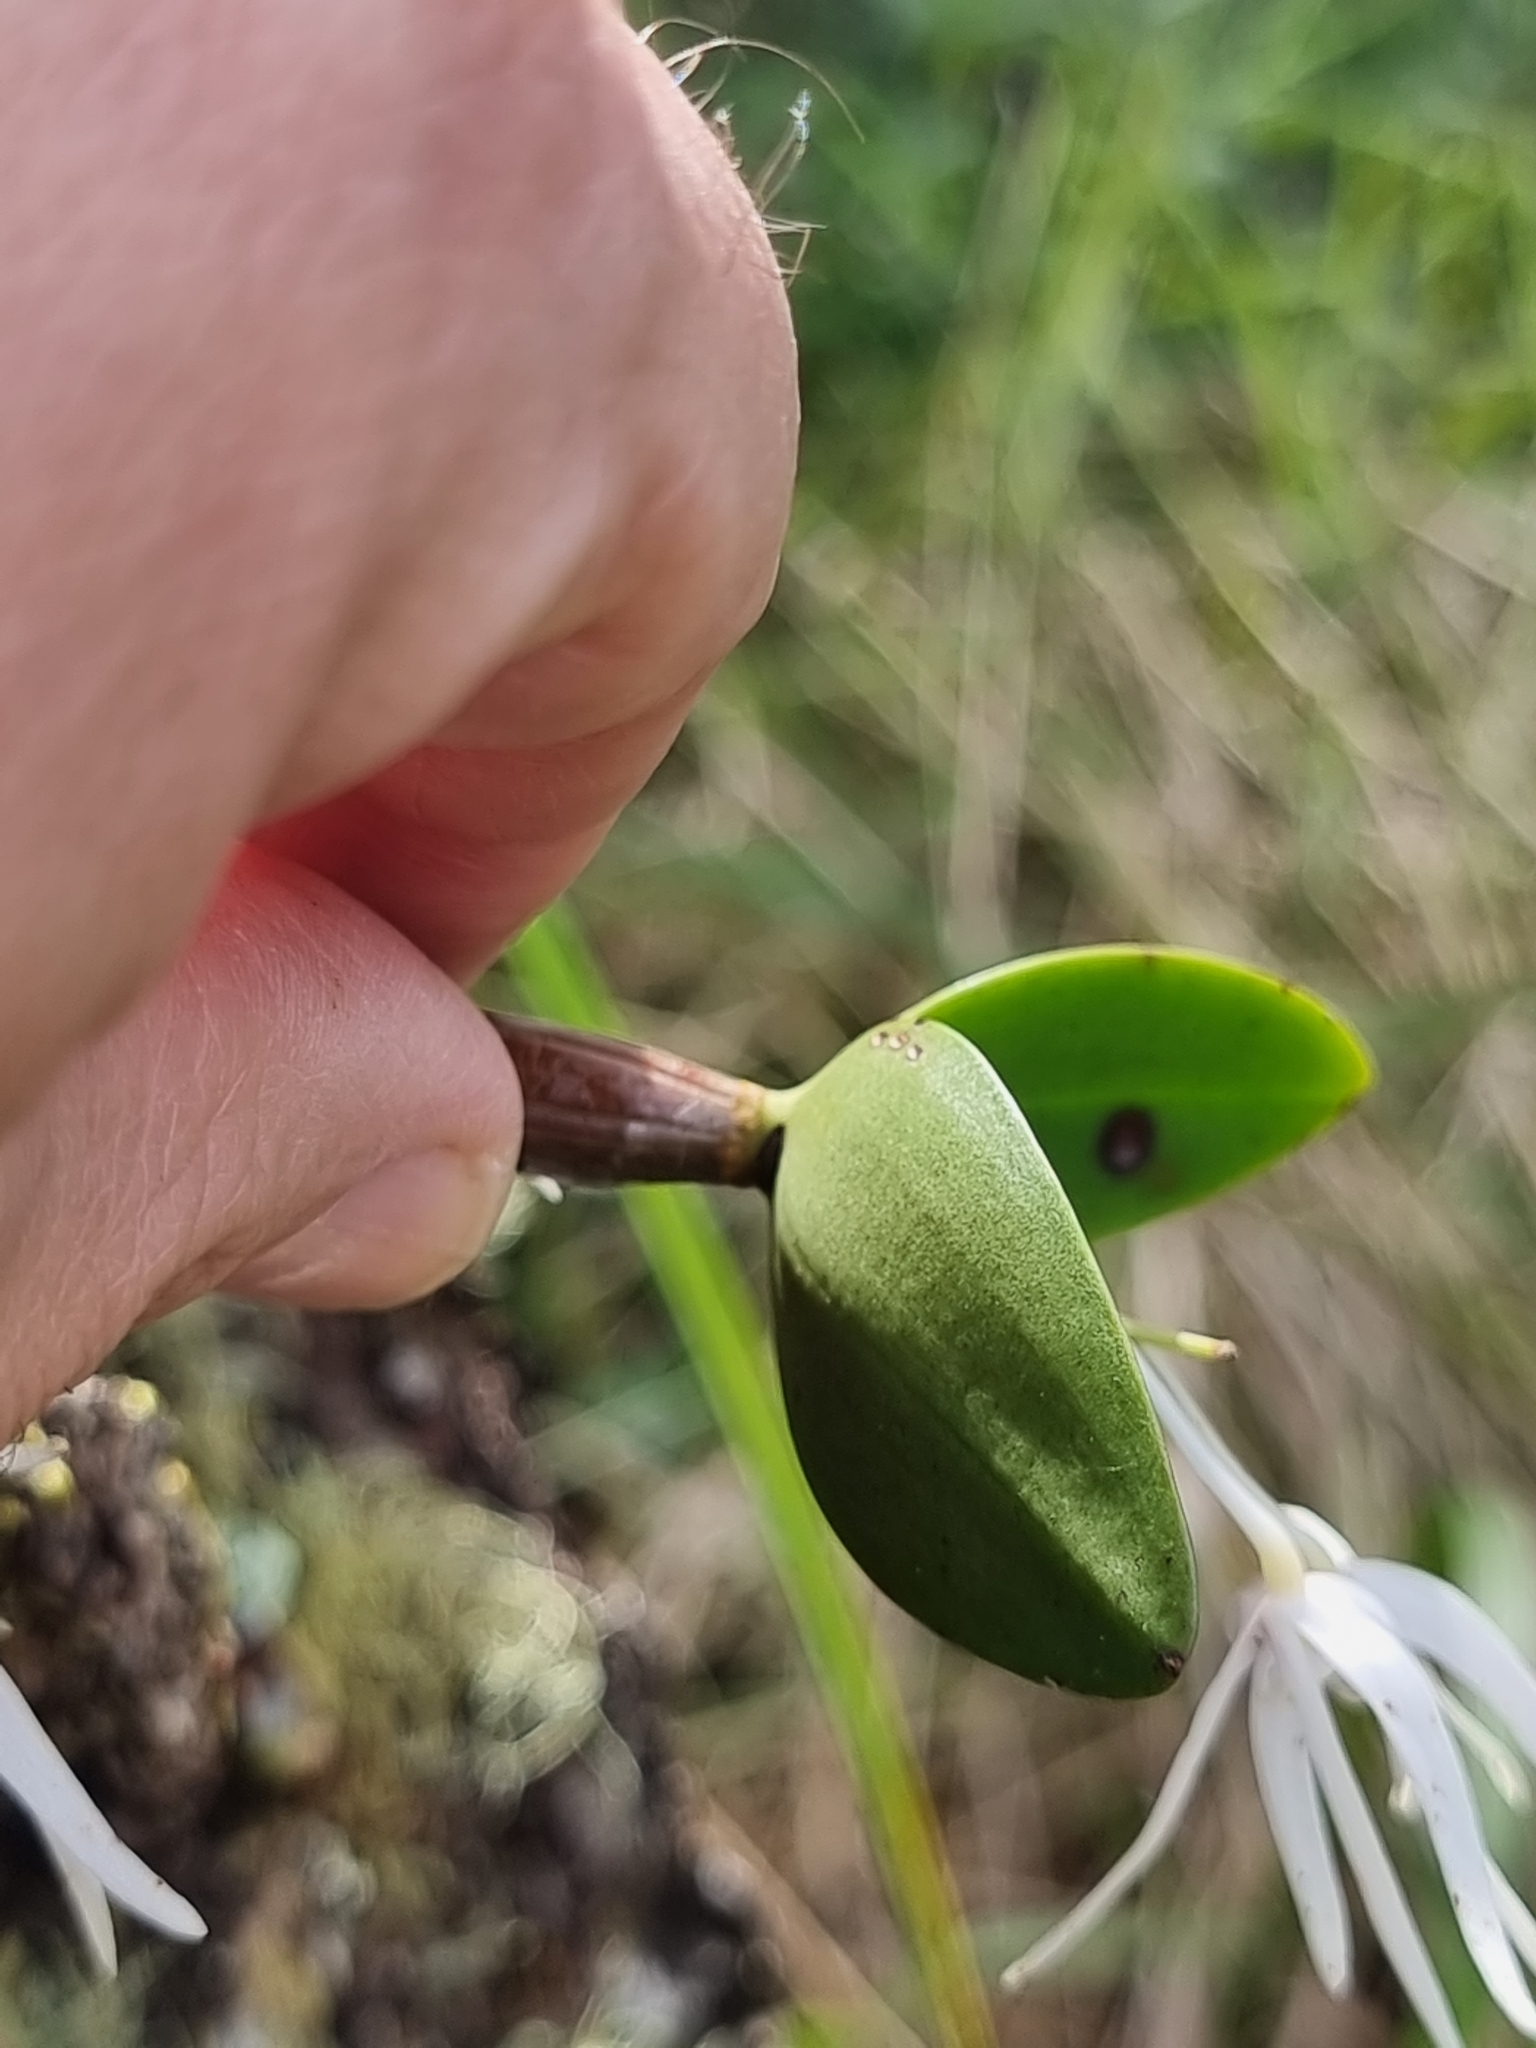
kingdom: Plantae
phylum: Tracheophyta
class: Liliopsida
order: Asparagales
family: Orchidaceae
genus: Dendrobium
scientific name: Dendrobium aemulum
